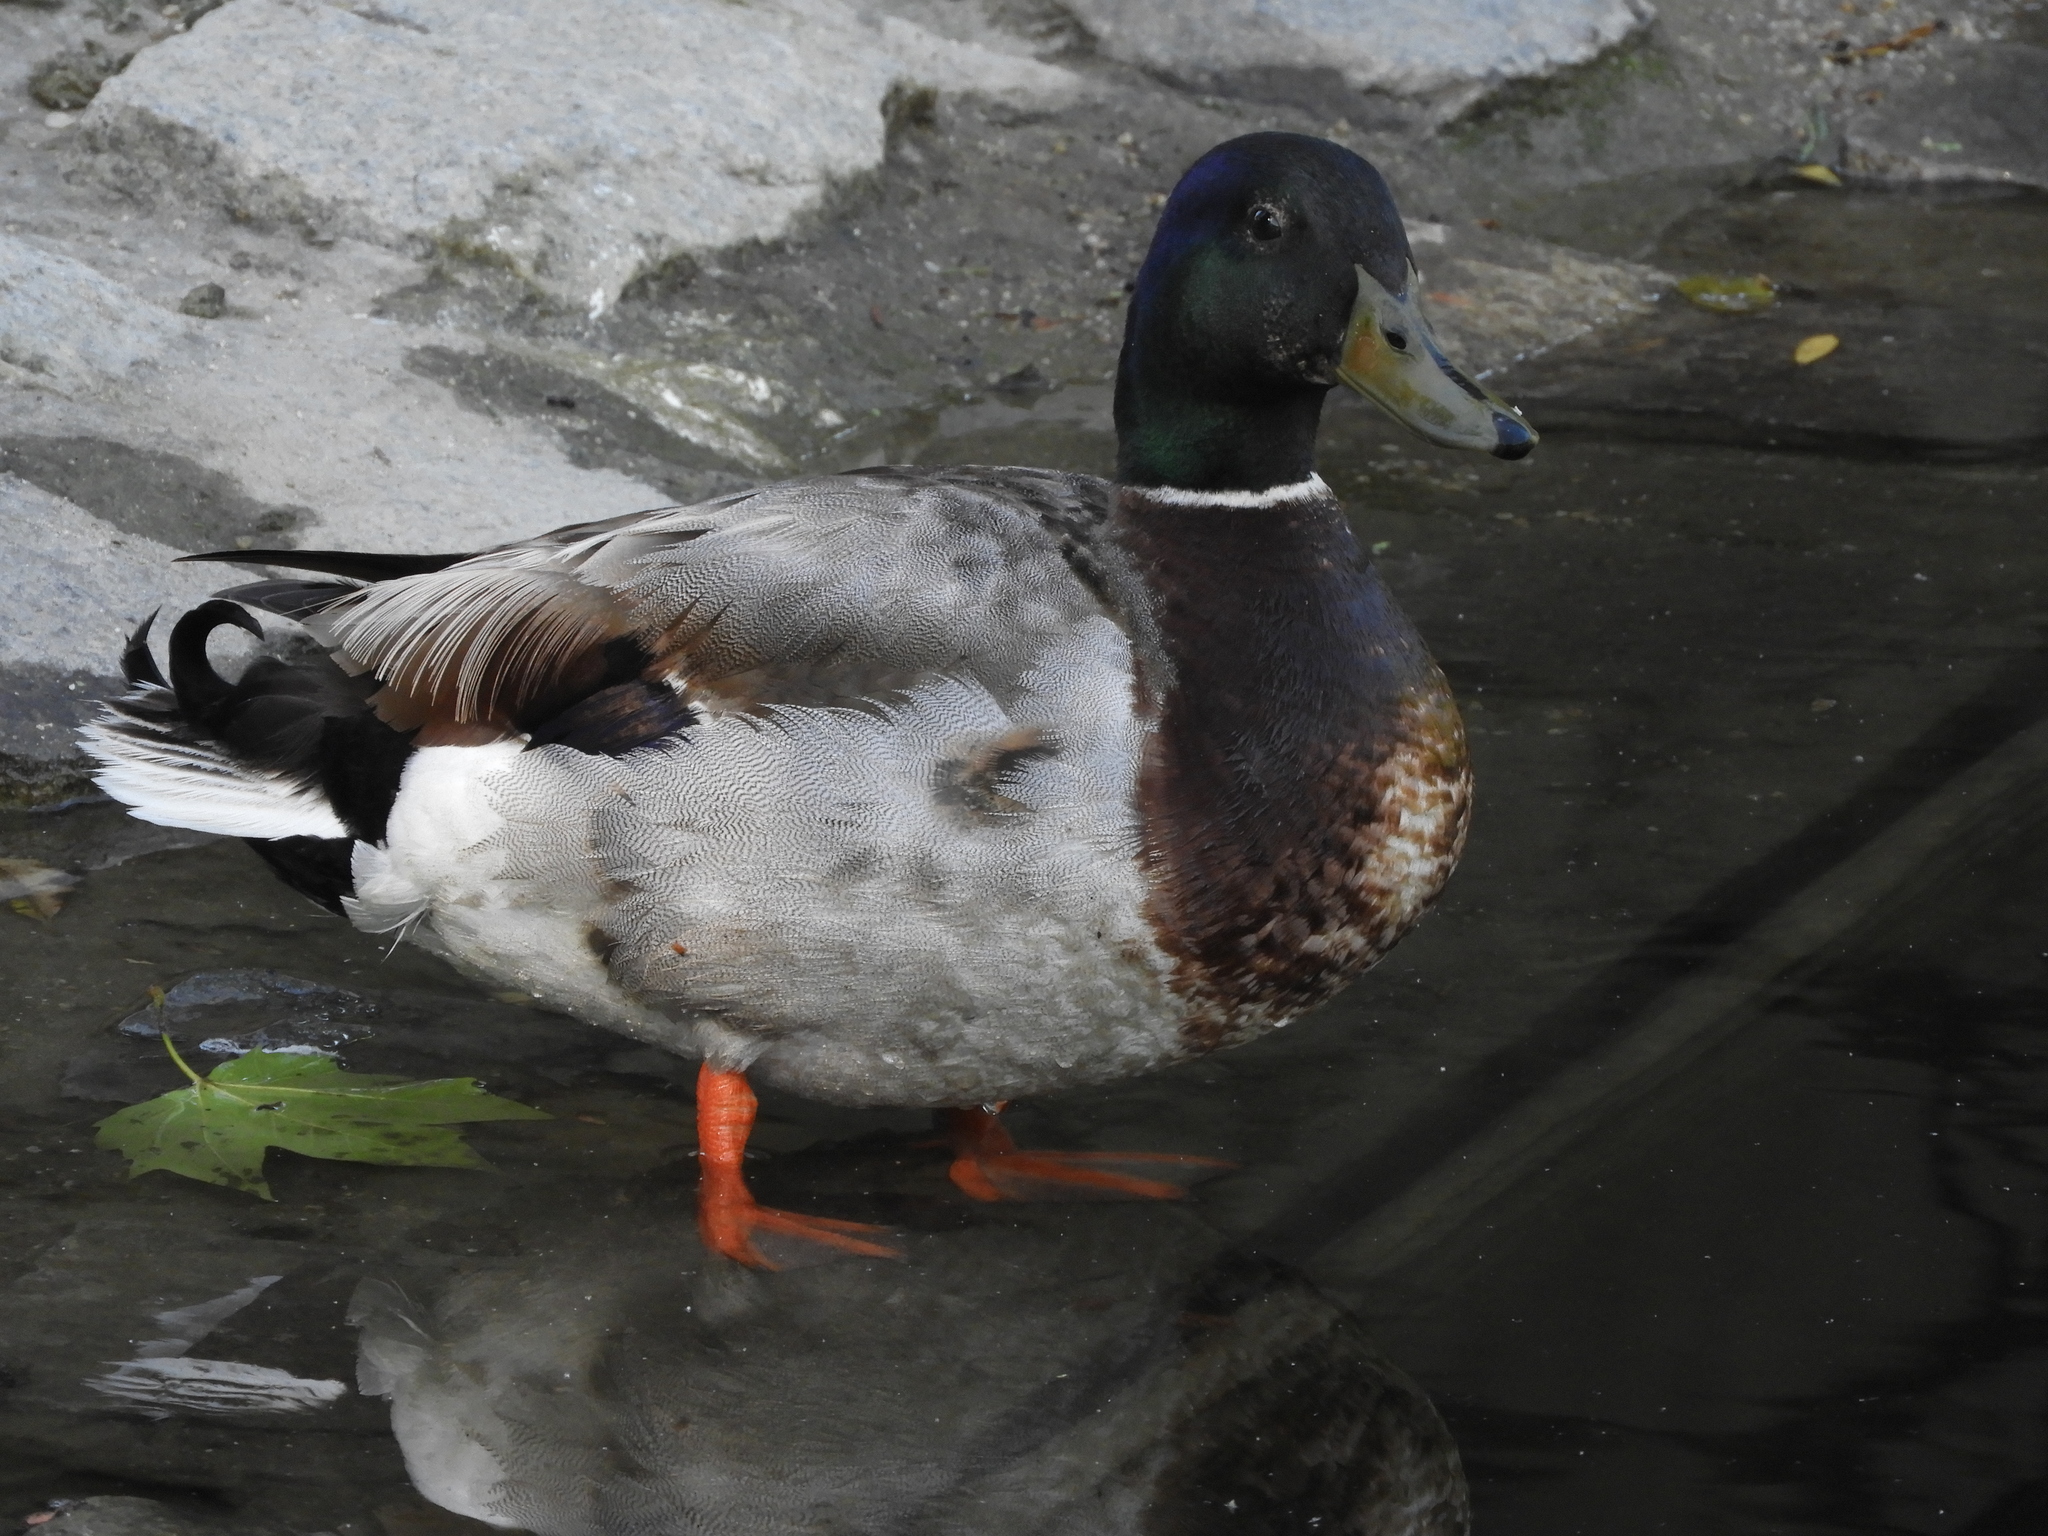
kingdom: Animalia
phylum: Chordata
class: Aves
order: Anseriformes
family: Anatidae
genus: Anas
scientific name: Anas platyrhynchos
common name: Mallard
